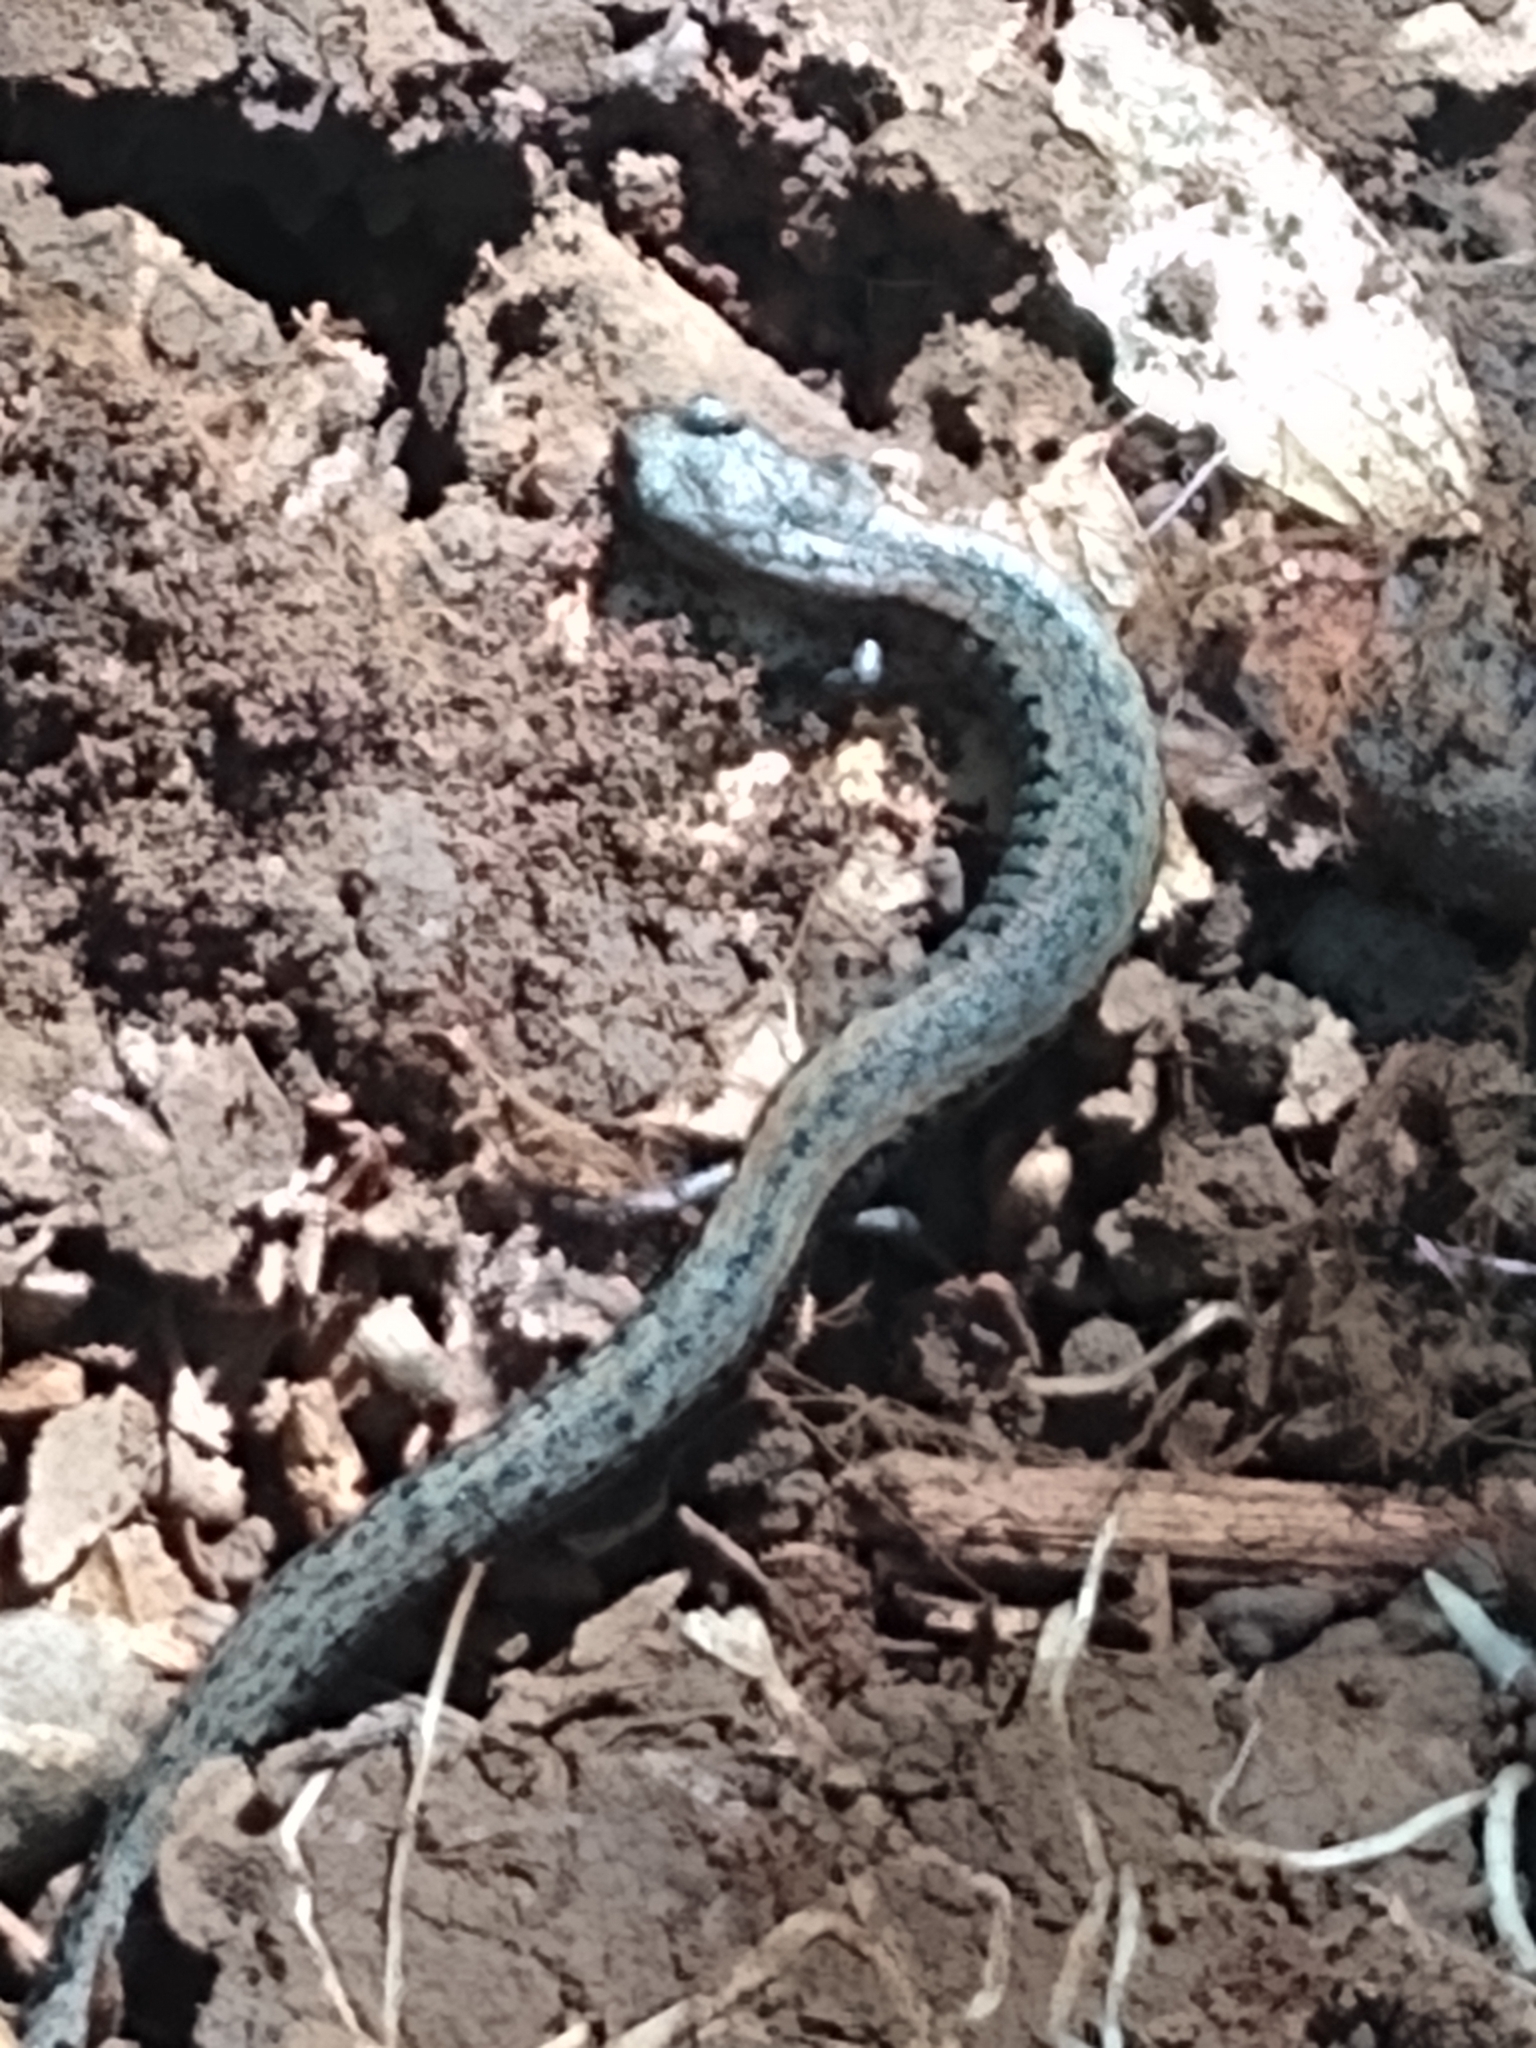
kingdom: Animalia
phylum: Chordata
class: Amphibia
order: Caudata
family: Plethodontidae
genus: Batrachoseps
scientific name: Batrachoseps attenuatus
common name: California slender salamander
